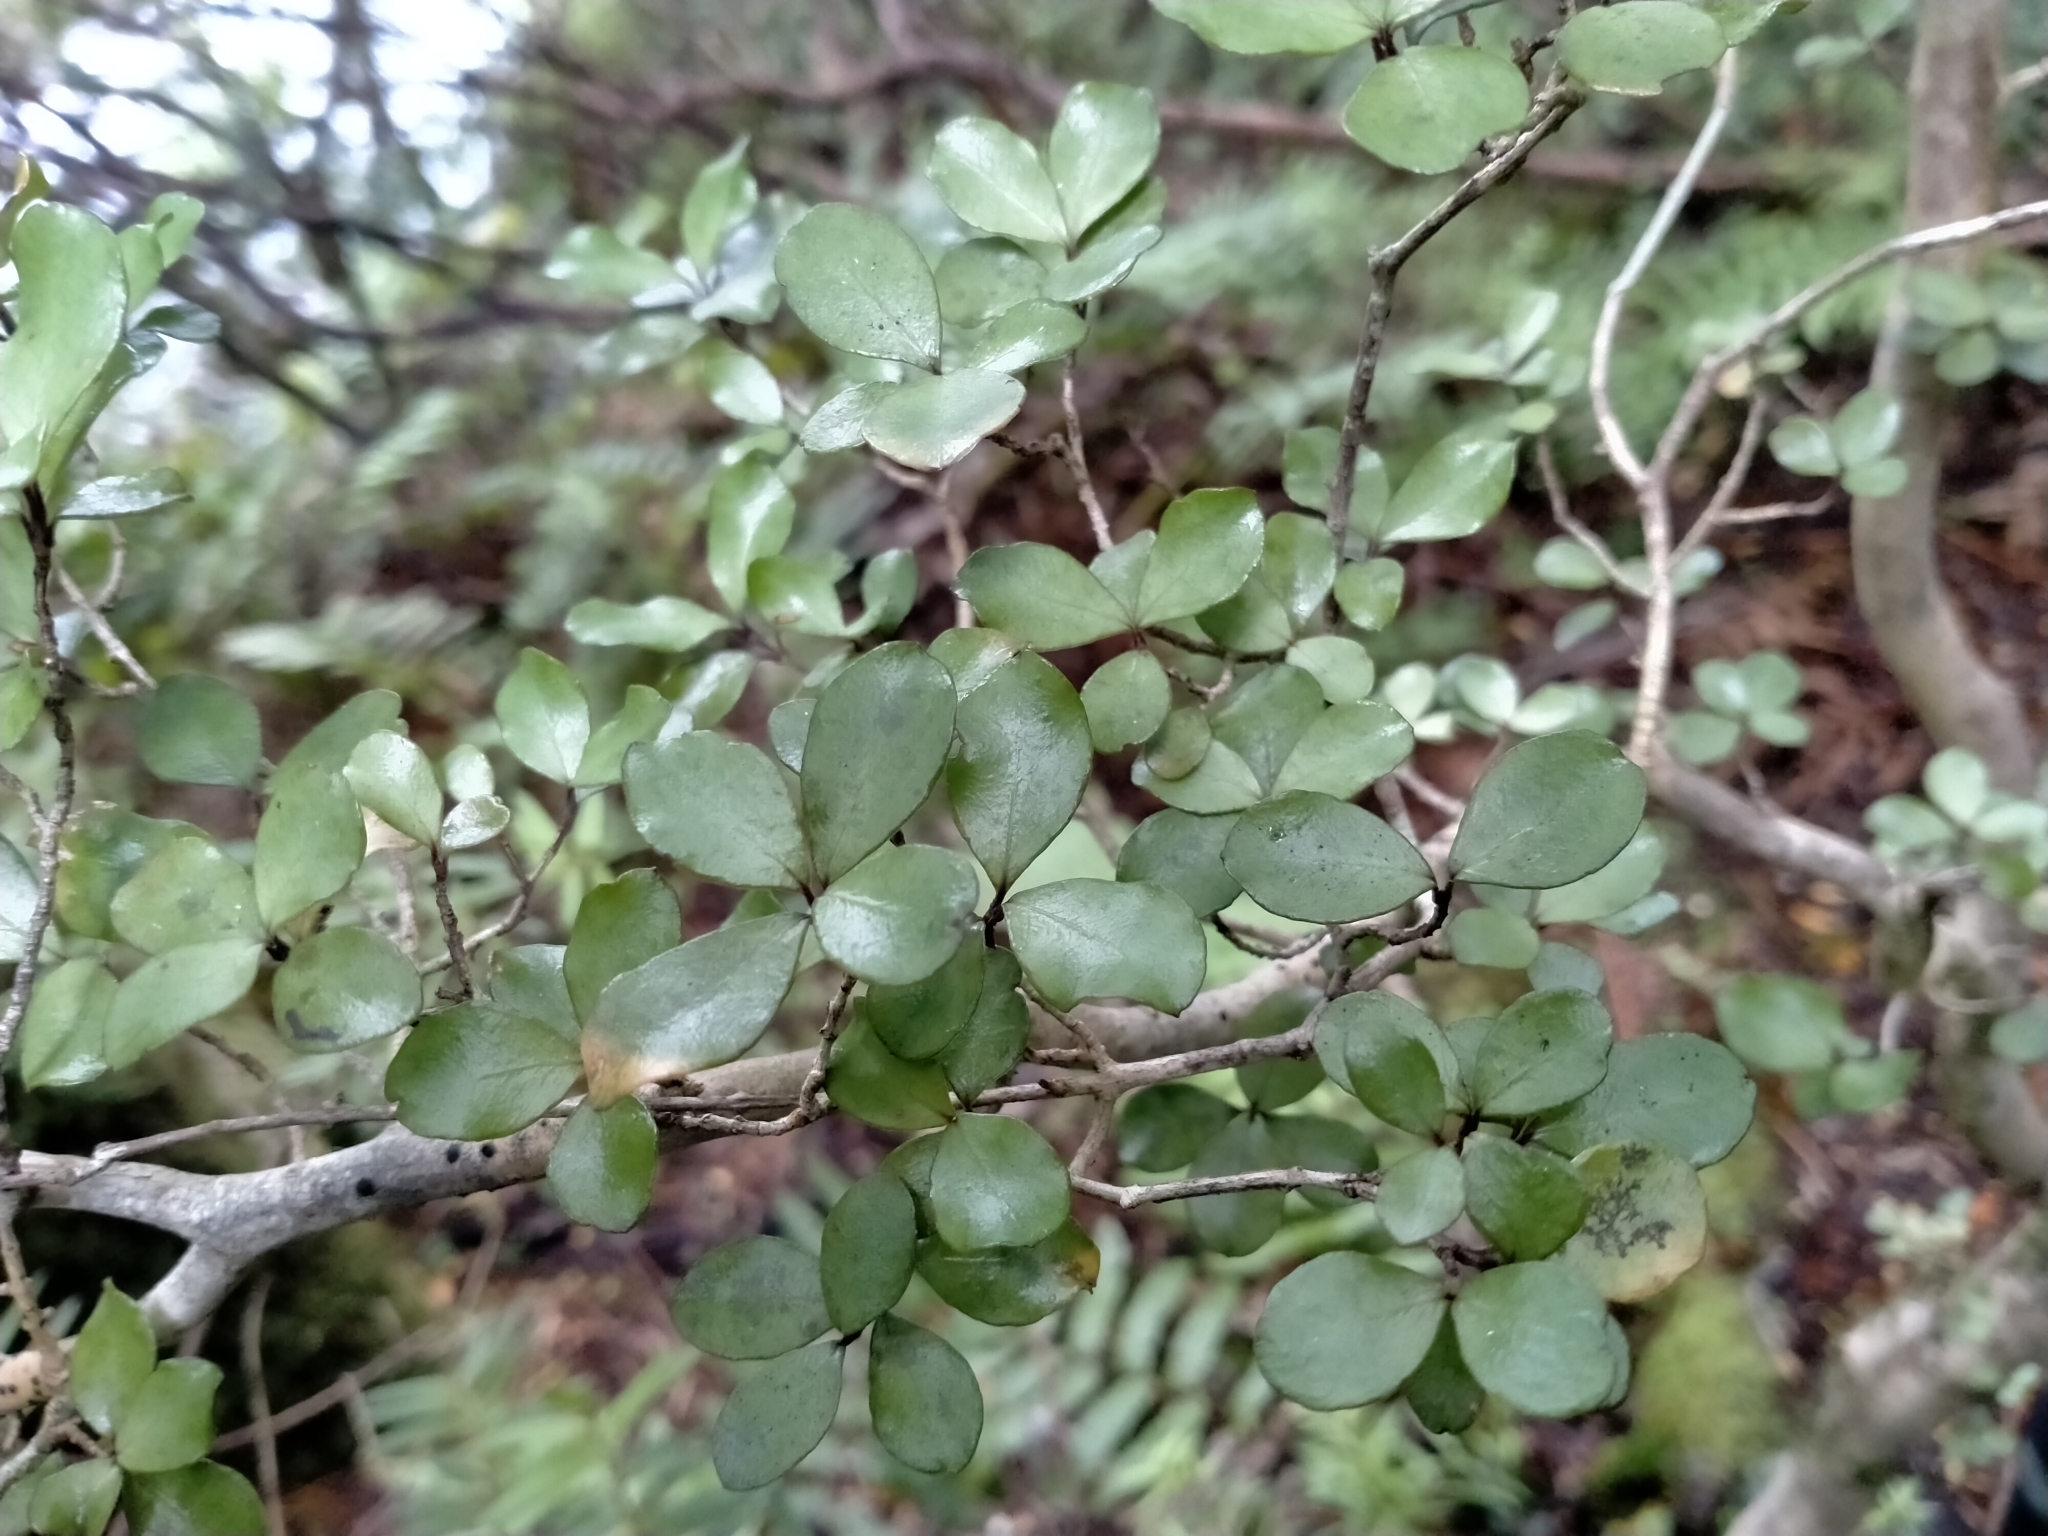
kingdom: Plantae
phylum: Tracheophyta
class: Magnoliopsida
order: Myrtales
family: Myrtaceae
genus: Neomyrtus
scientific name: Neomyrtus pedunculata
